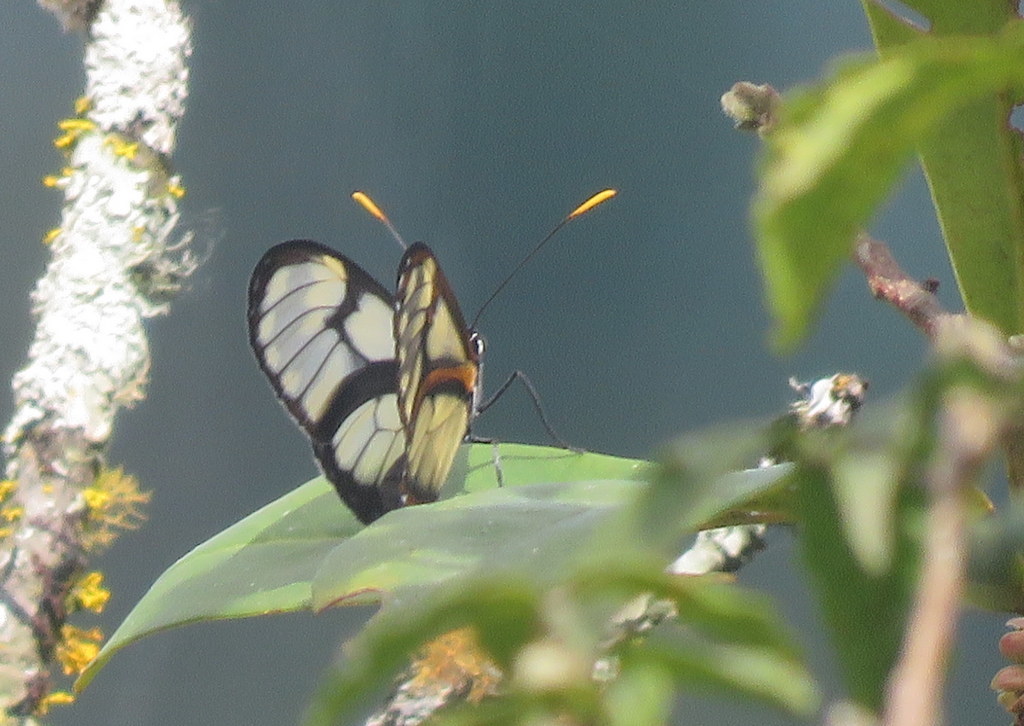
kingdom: Animalia
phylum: Arthropoda
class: Insecta
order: Lepidoptera
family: Nymphalidae
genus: Pteronymia
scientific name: Pteronymia ozia
